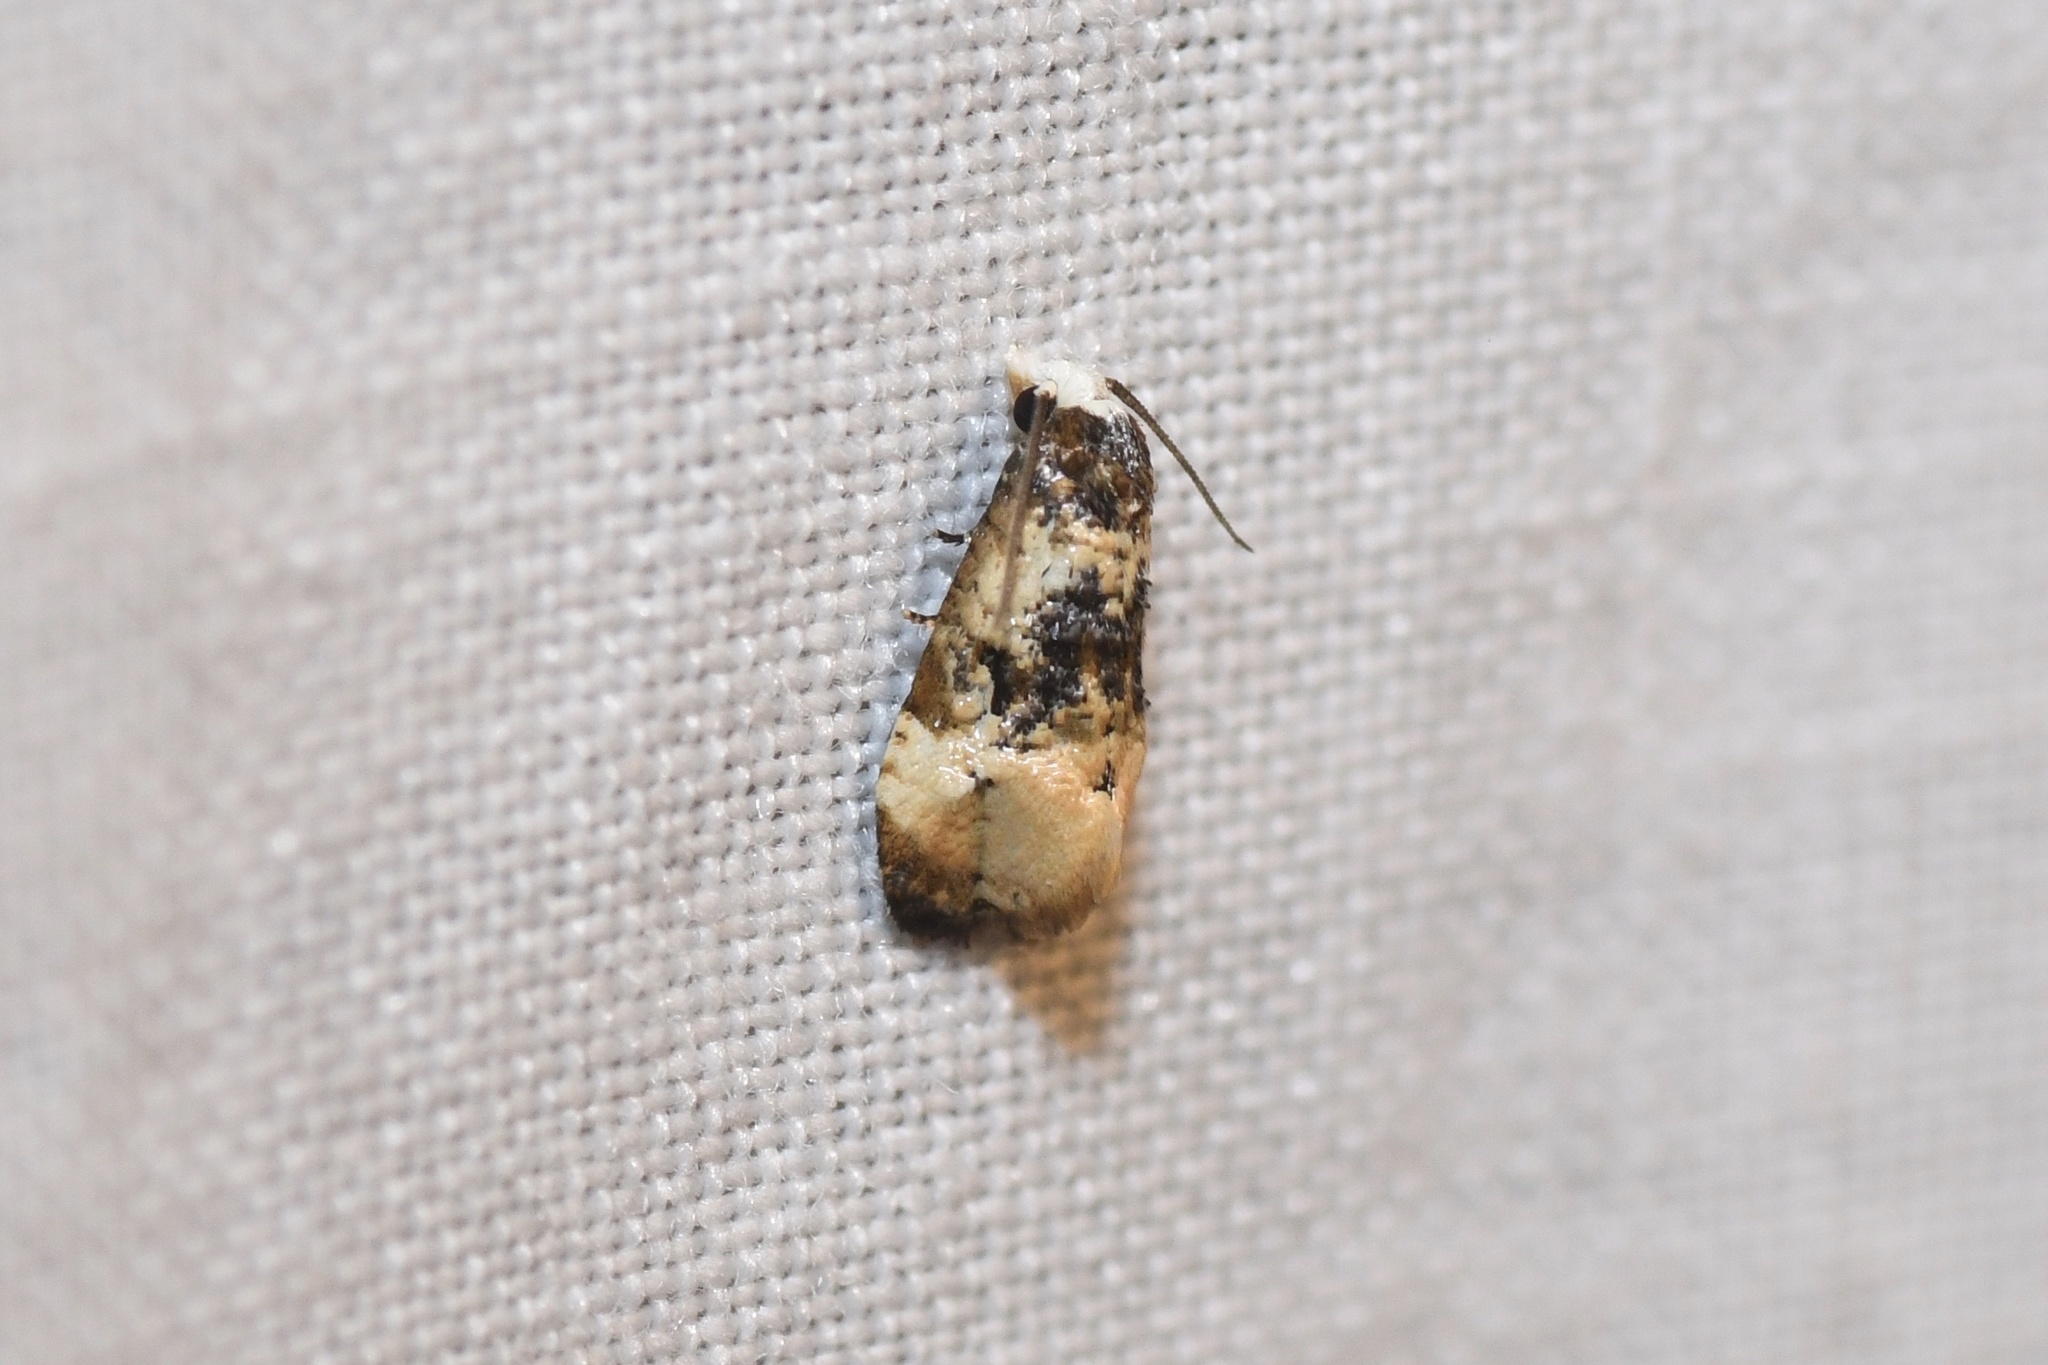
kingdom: Animalia
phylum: Arthropoda
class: Insecta
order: Lepidoptera
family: Tortricidae
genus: Phalonidia
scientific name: Phalonidia memoranda
